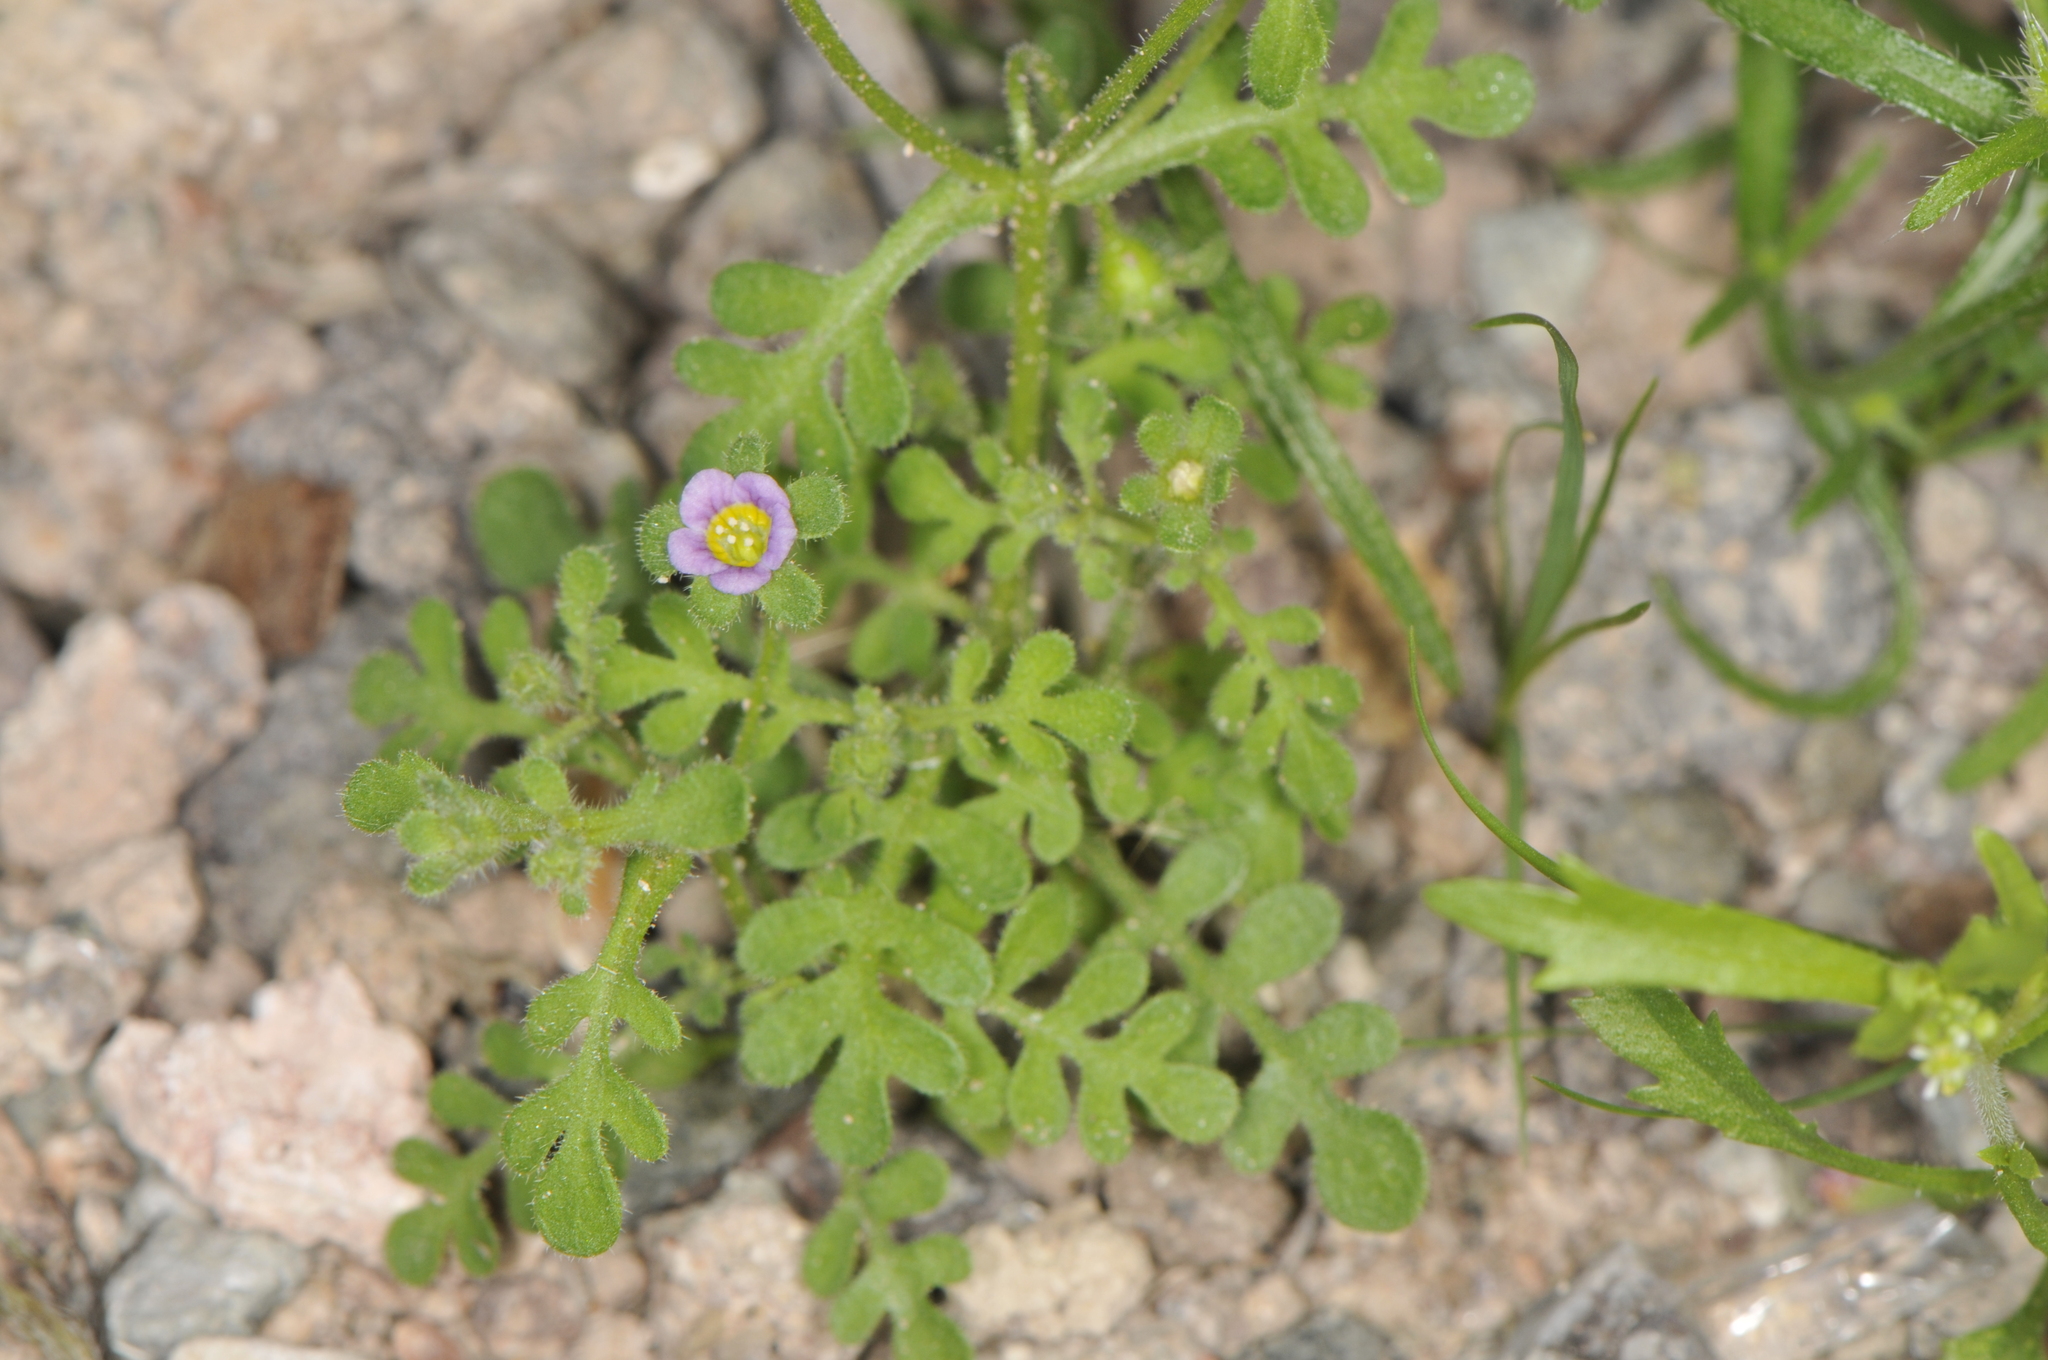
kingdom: Plantae
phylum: Tracheophyta
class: Magnoliopsida
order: Boraginales
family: Hydrophyllaceae
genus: Eucrypta
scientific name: Eucrypta micrantha
